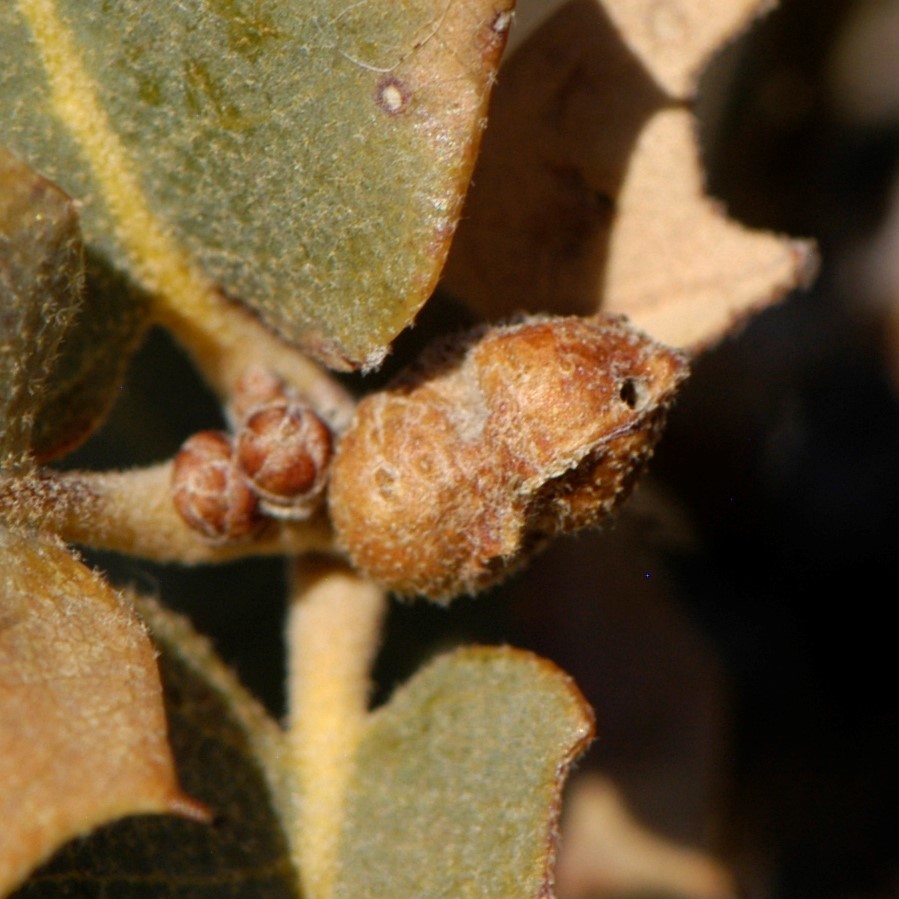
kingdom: Animalia
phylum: Arthropoda
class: Insecta
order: Hymenoptera
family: Cynipidae
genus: Andricus
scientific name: Andricus
